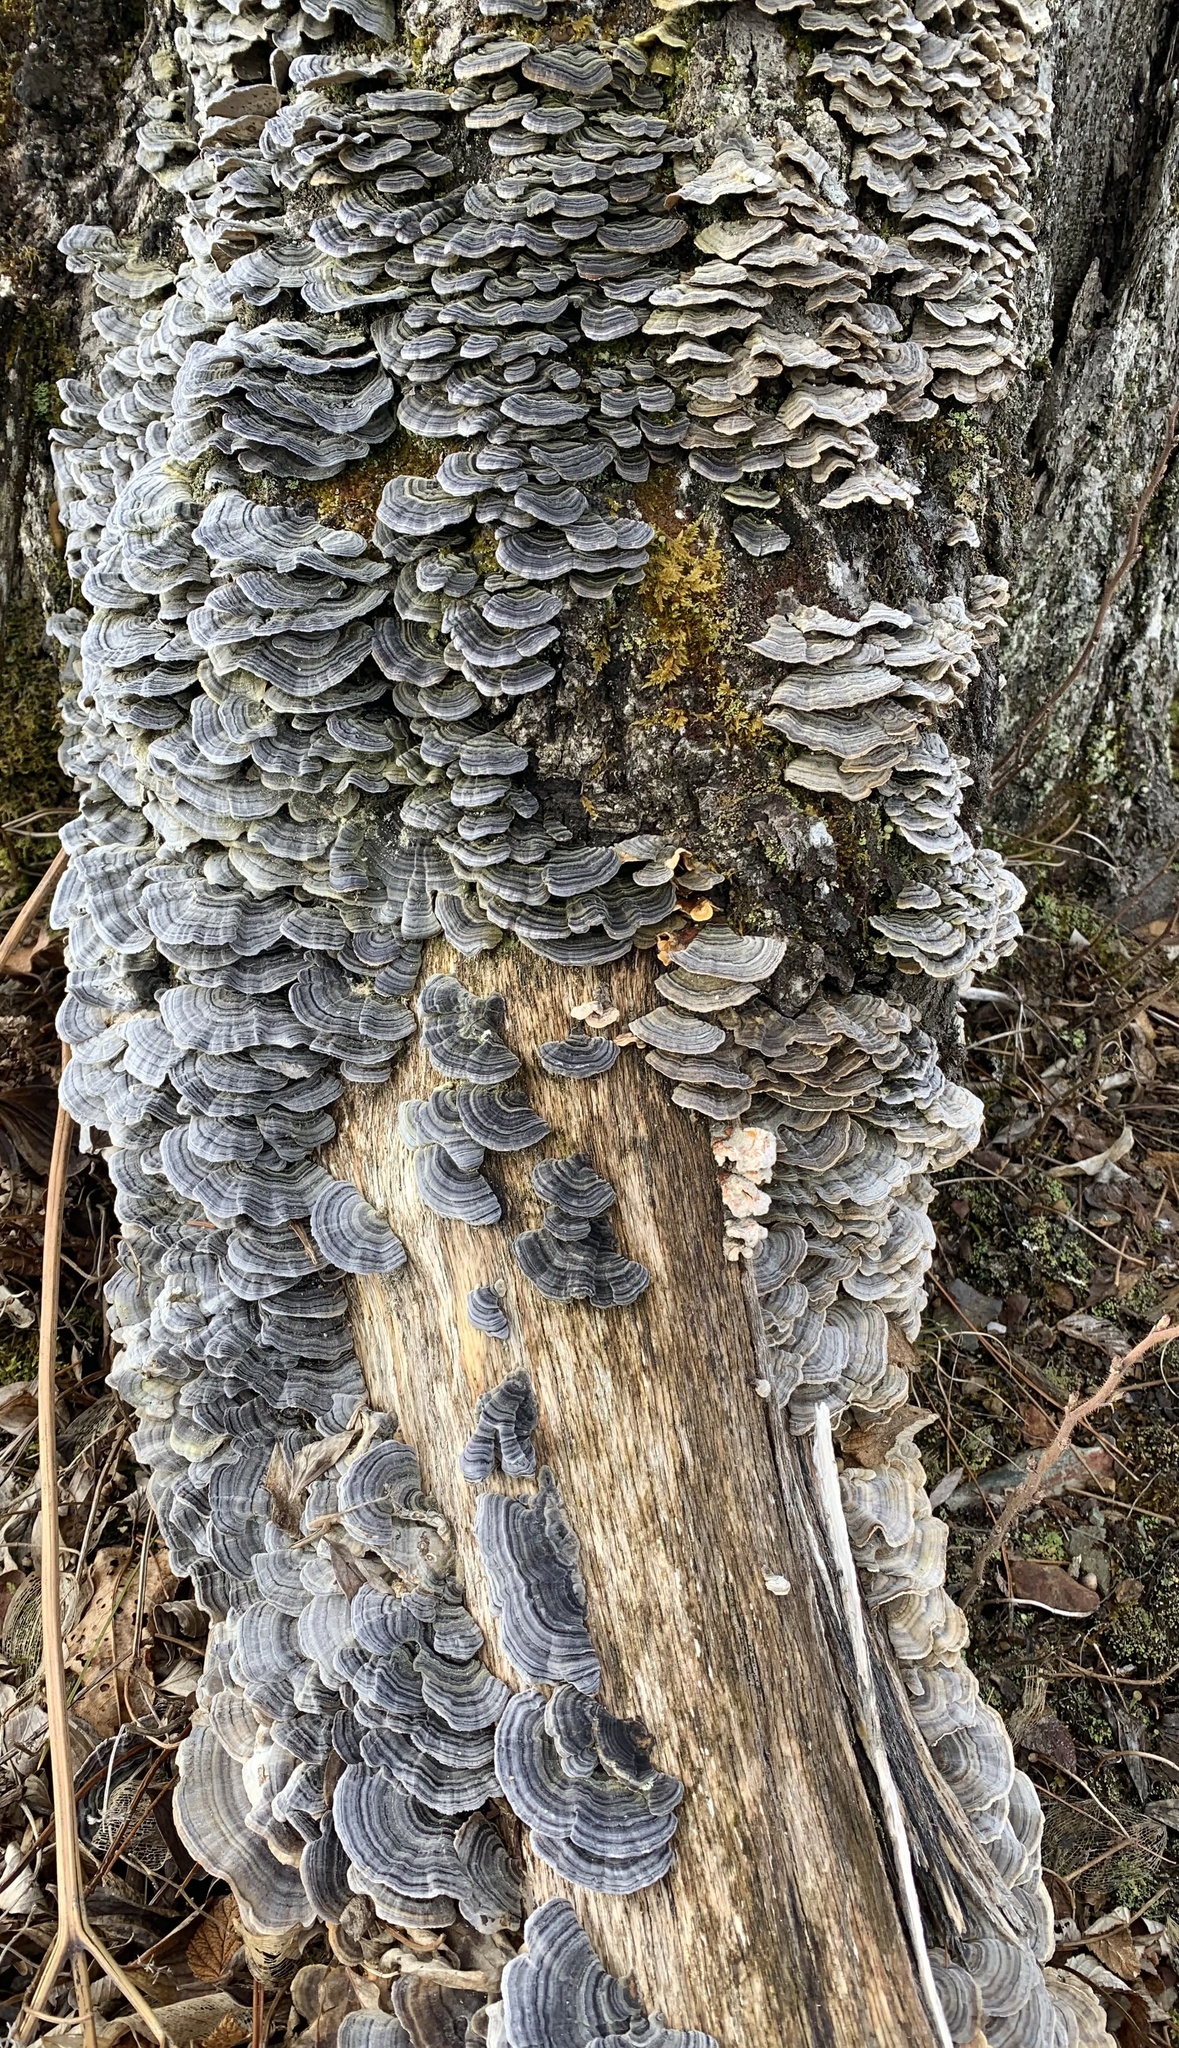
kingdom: Fungi
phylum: Basidiomycota
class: Agaricomycetes
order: Polyporales
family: Polyporaceae
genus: Trametes
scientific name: Trametes versicolor
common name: Turkeytail
